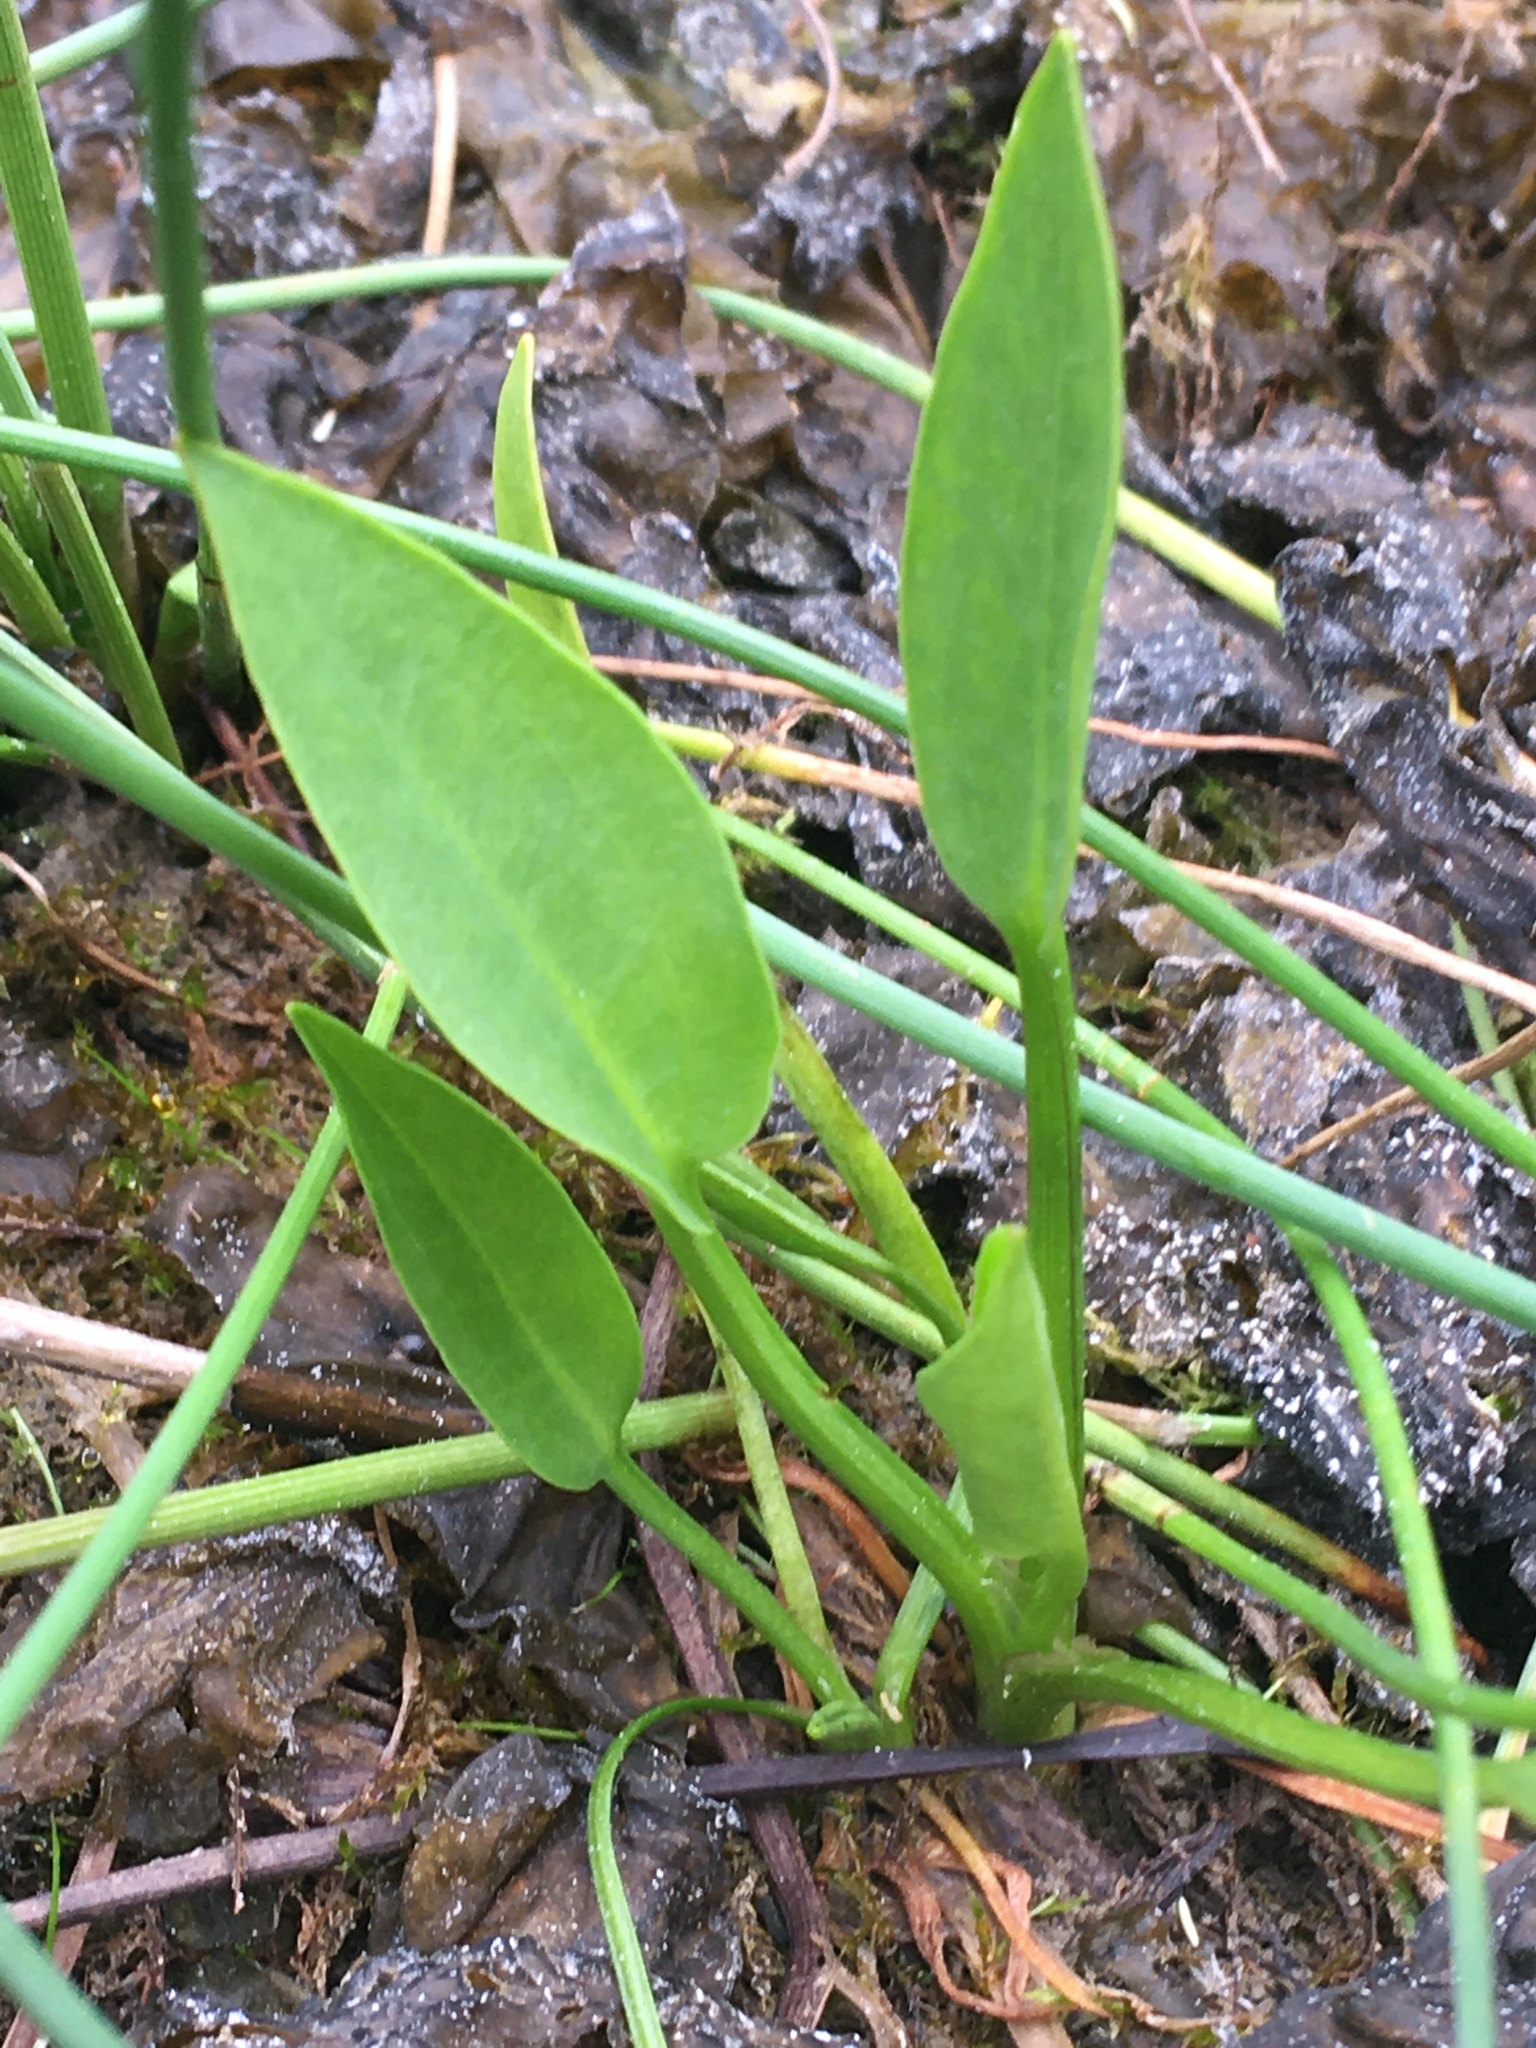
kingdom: Plantae
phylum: Tracheophyta
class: Liliopsida
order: Alismatales
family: Alismataceae
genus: Alisma
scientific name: Alisma plantago-aquatica
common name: Water-plantain
